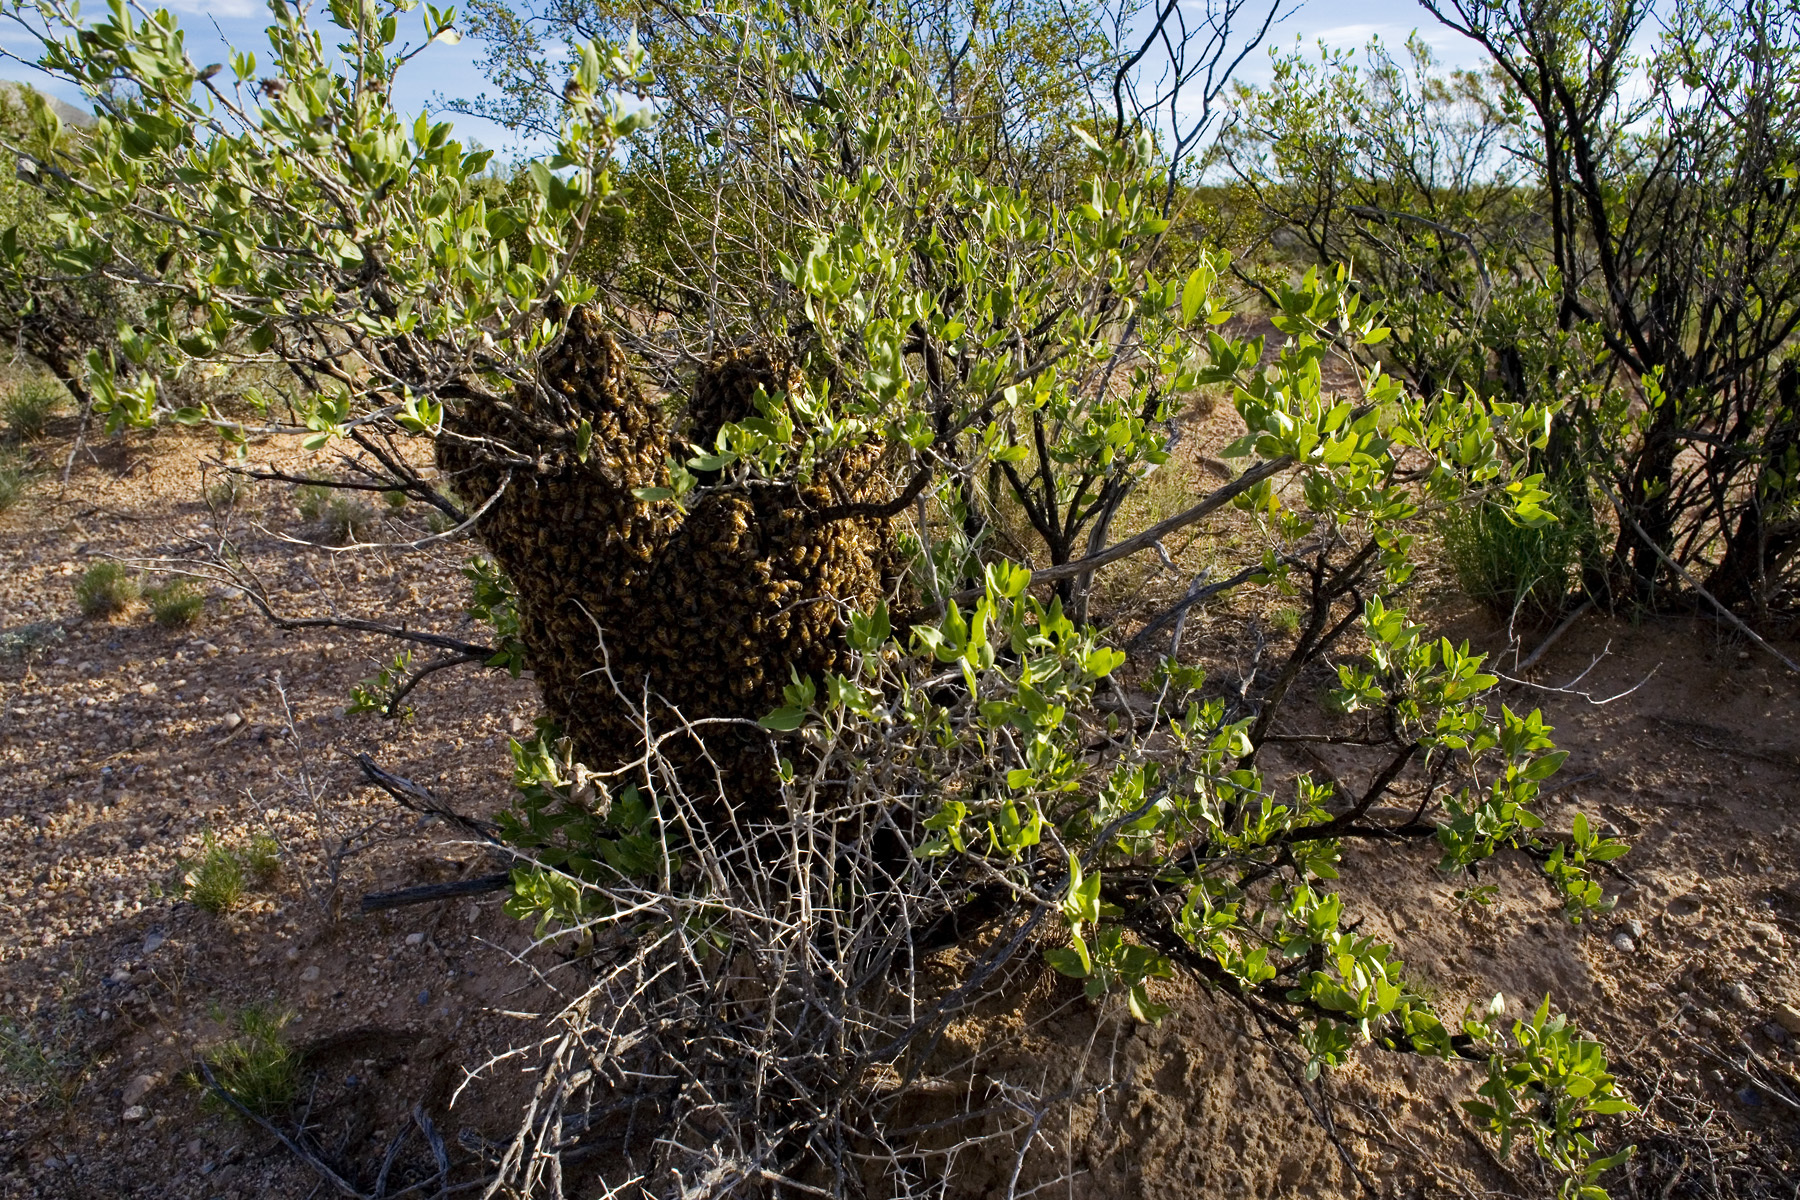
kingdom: Animalia
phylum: Arthropoda
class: Insecta
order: Hymenoptera
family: Apidae
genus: Apis
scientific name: Apis mellifera
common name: Honey bee
